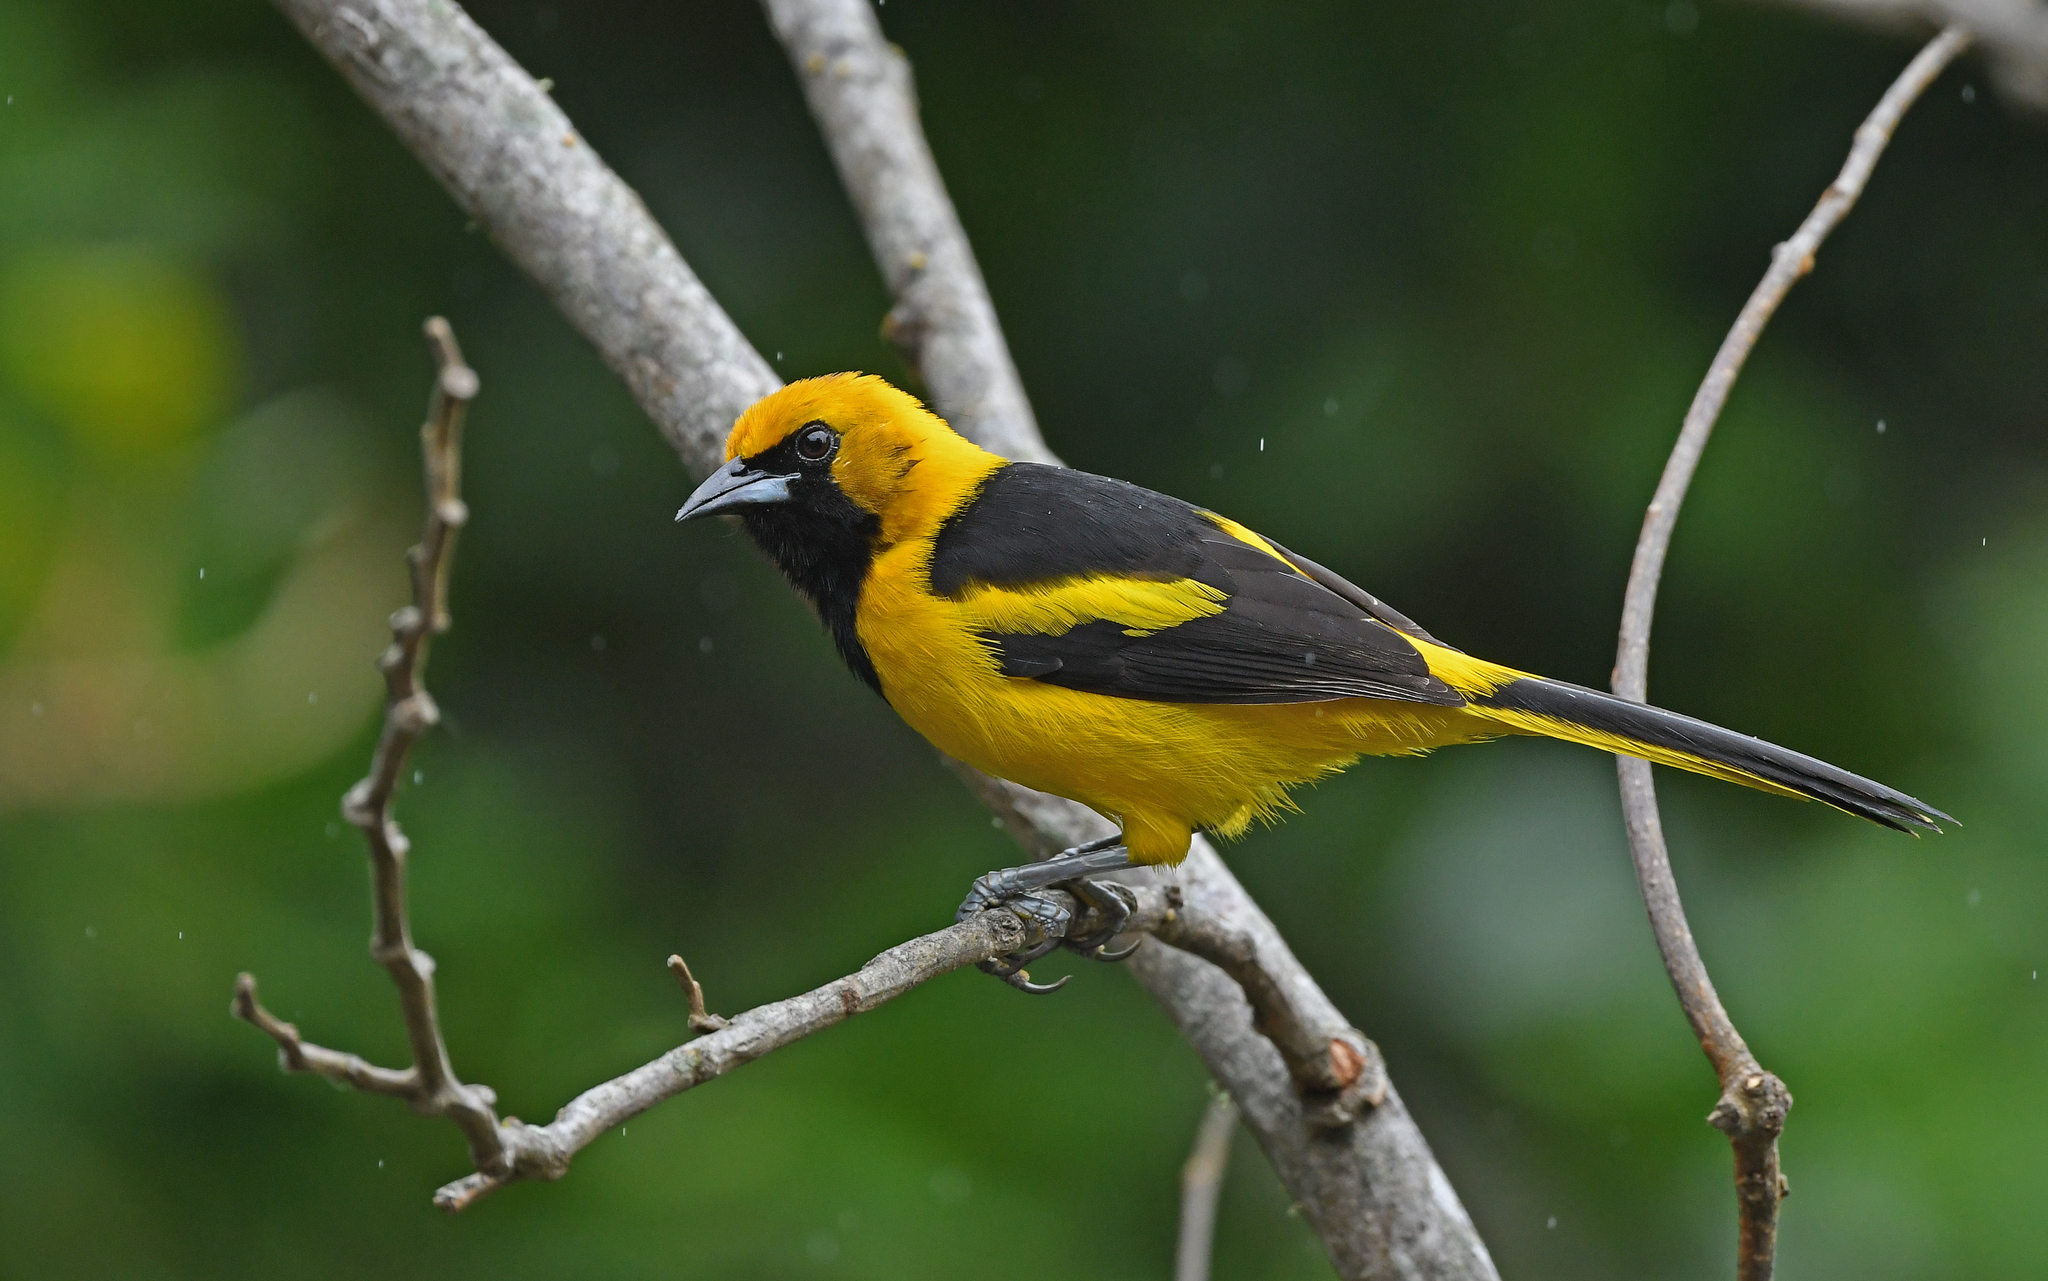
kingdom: Animalia
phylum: Chordata
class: Aves
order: Passeriformes
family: Icteridae
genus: Icterus
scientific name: Icterus mesomelas
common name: Yellow-tailed oriole
